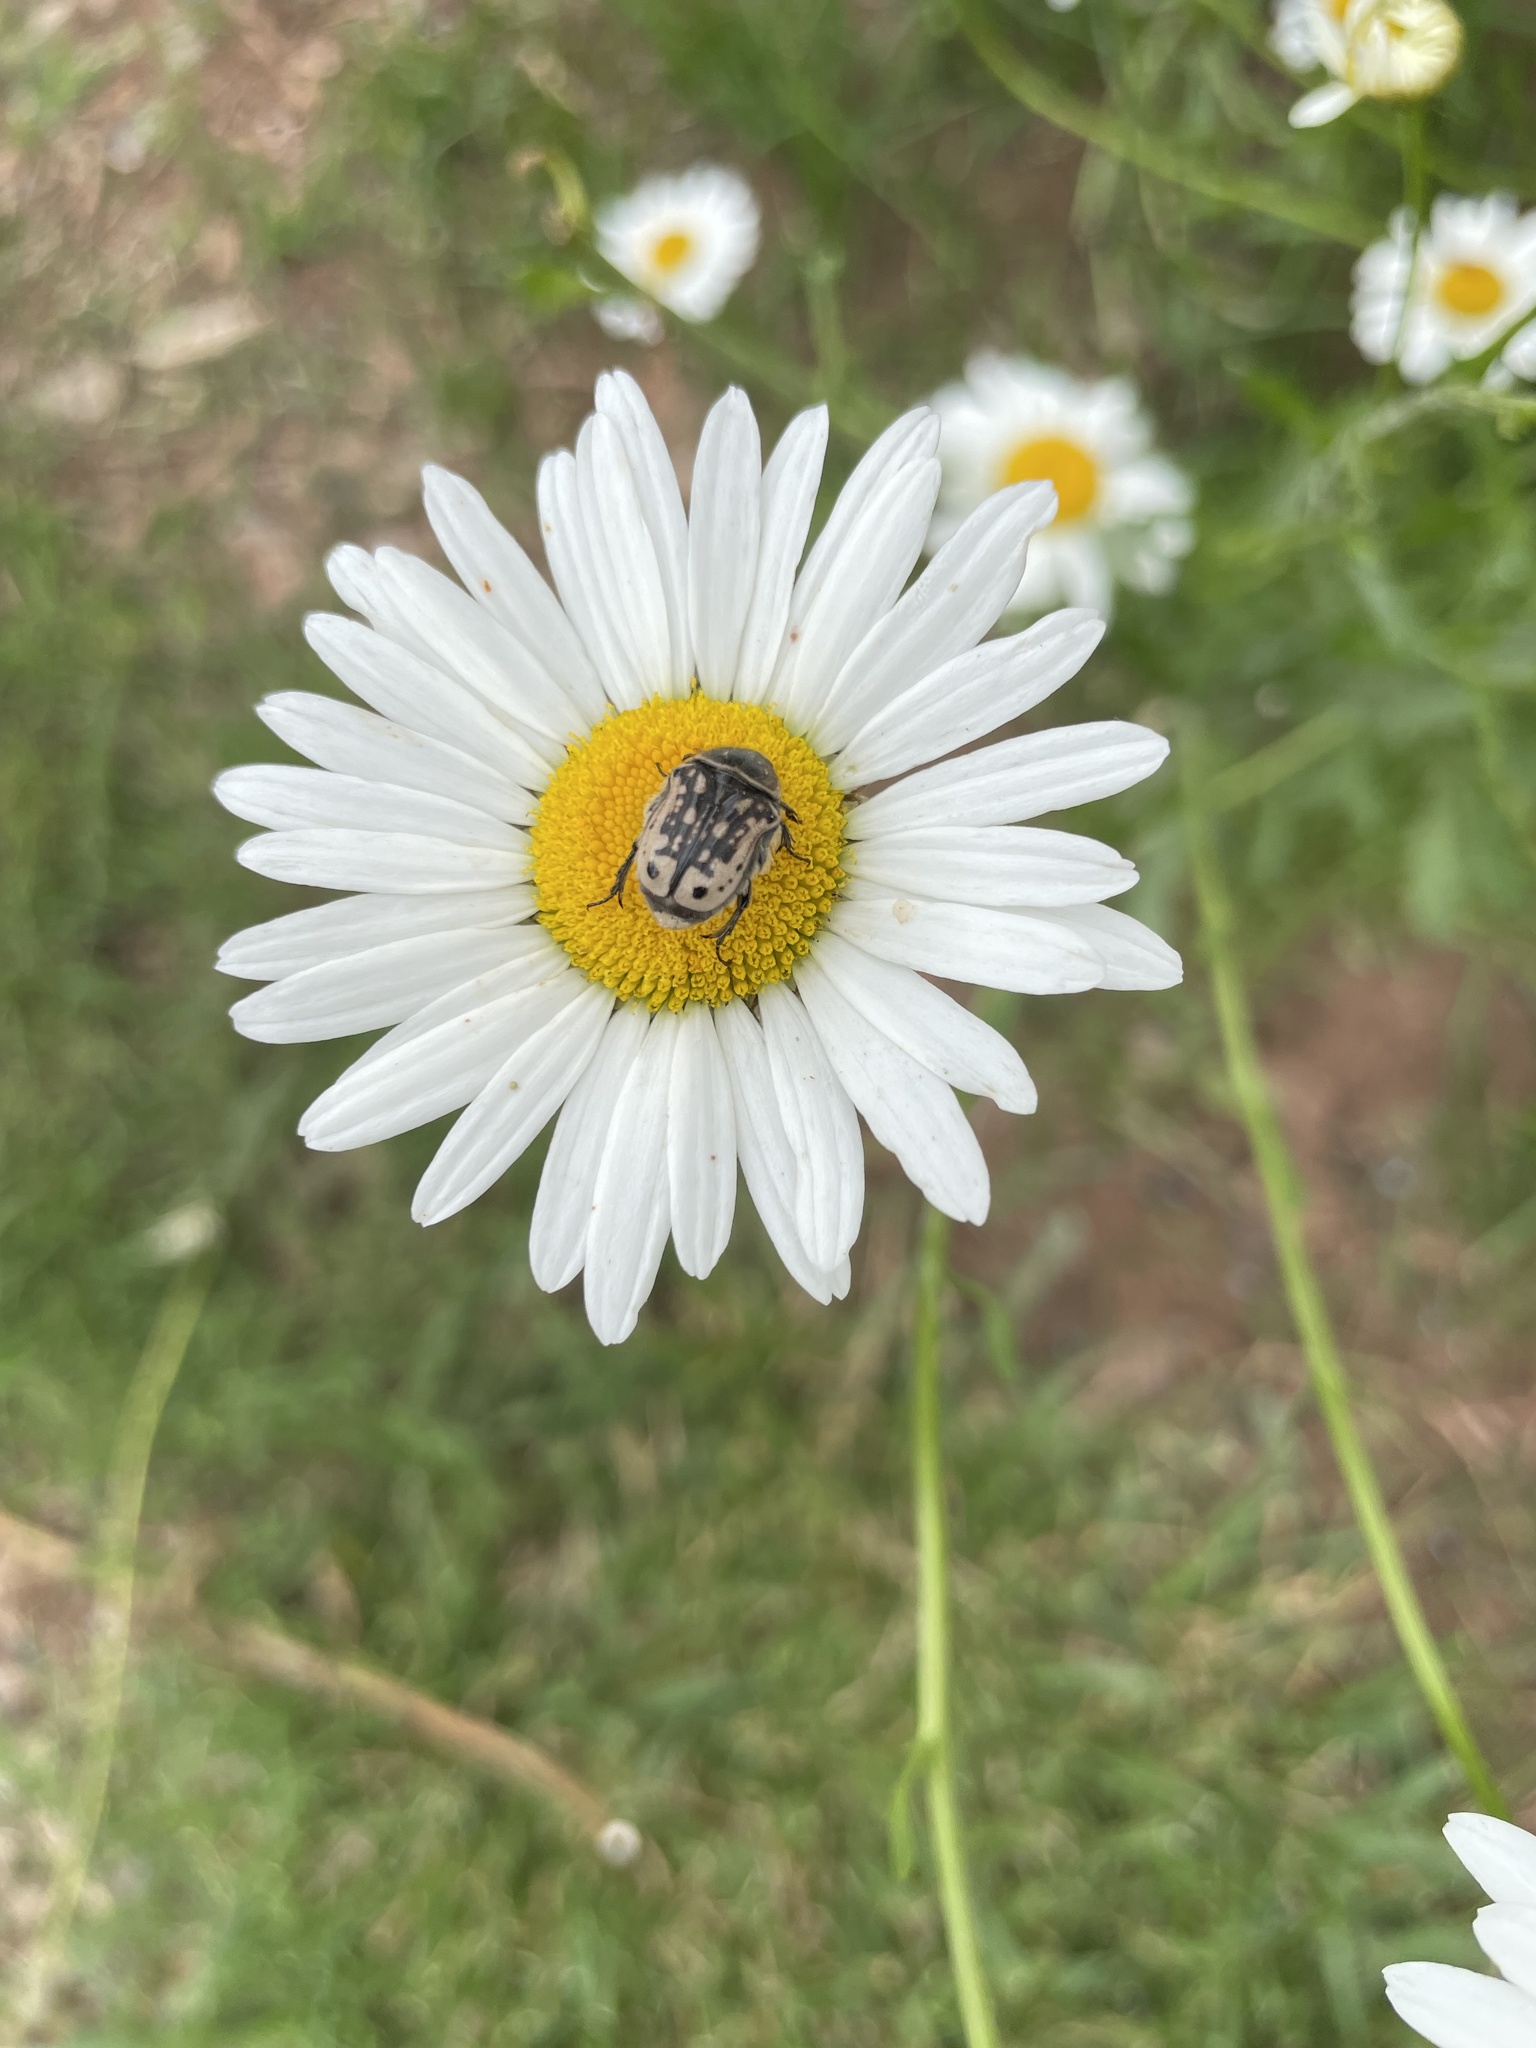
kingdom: Animalia
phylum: Arthropoda
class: Insecta
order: Coleoptera
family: Scarabaeidae
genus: Euphoria
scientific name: Euphoria kernii
